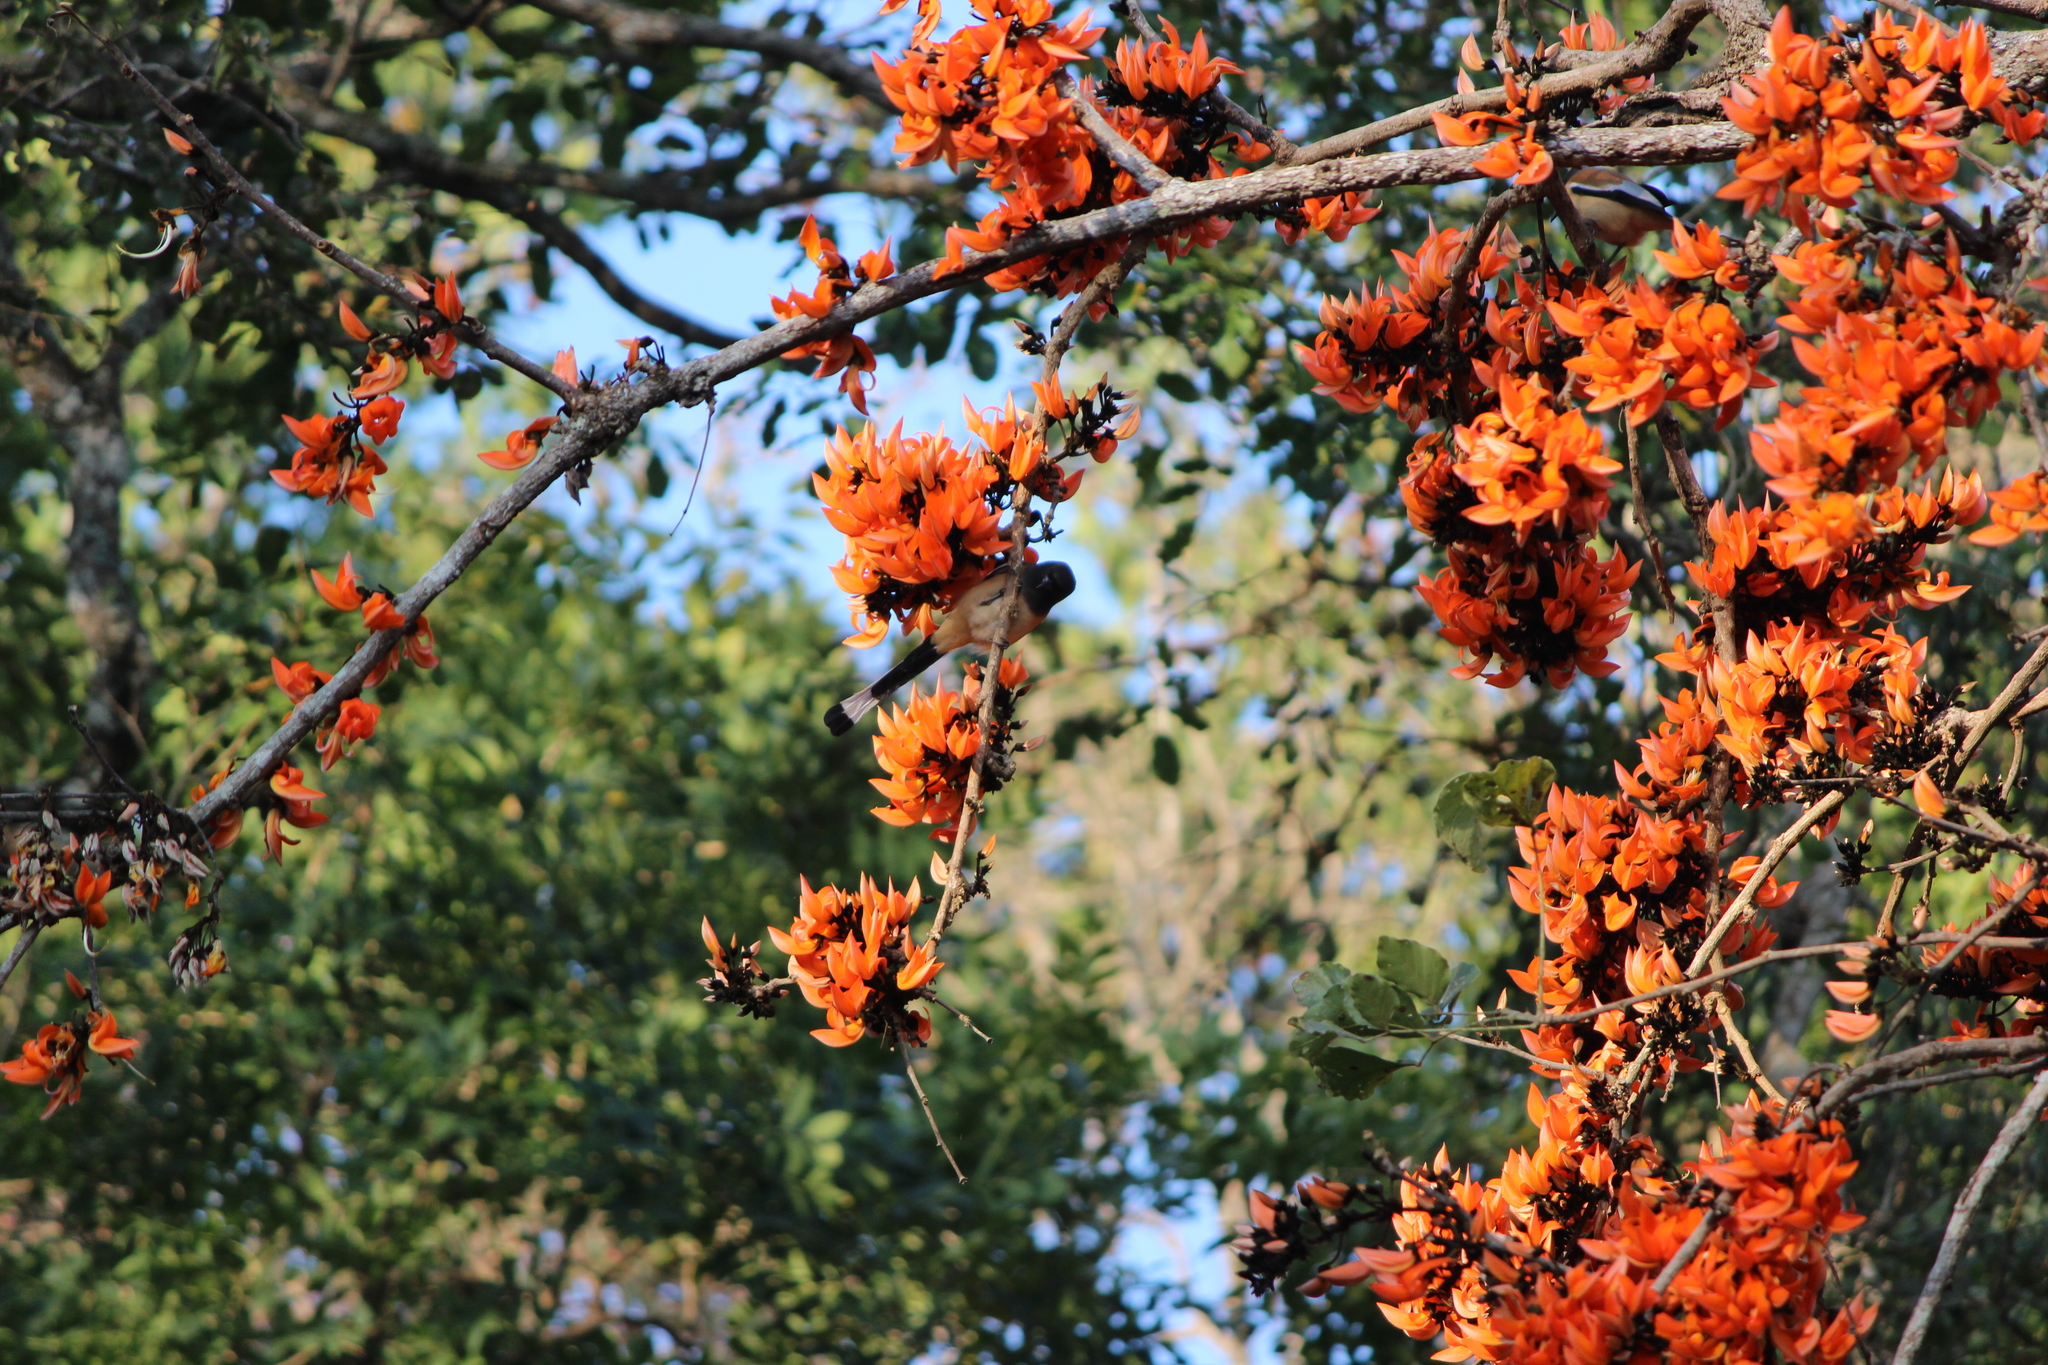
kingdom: Animalia
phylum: Chordata
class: Aves
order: Passeriformes
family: Corvidae
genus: Dendrocitta
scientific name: Dendrocitta vagabunda
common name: Rufous treepie
